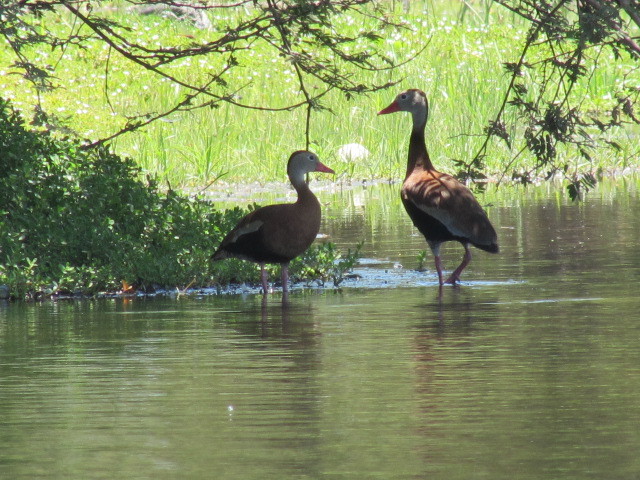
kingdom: Animalia
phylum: Chordata
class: Aves
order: Anseriformes
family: Anatidae
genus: Dendrocygna
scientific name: Dendrocygna autumnalis
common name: Black-bellied whistling duck
